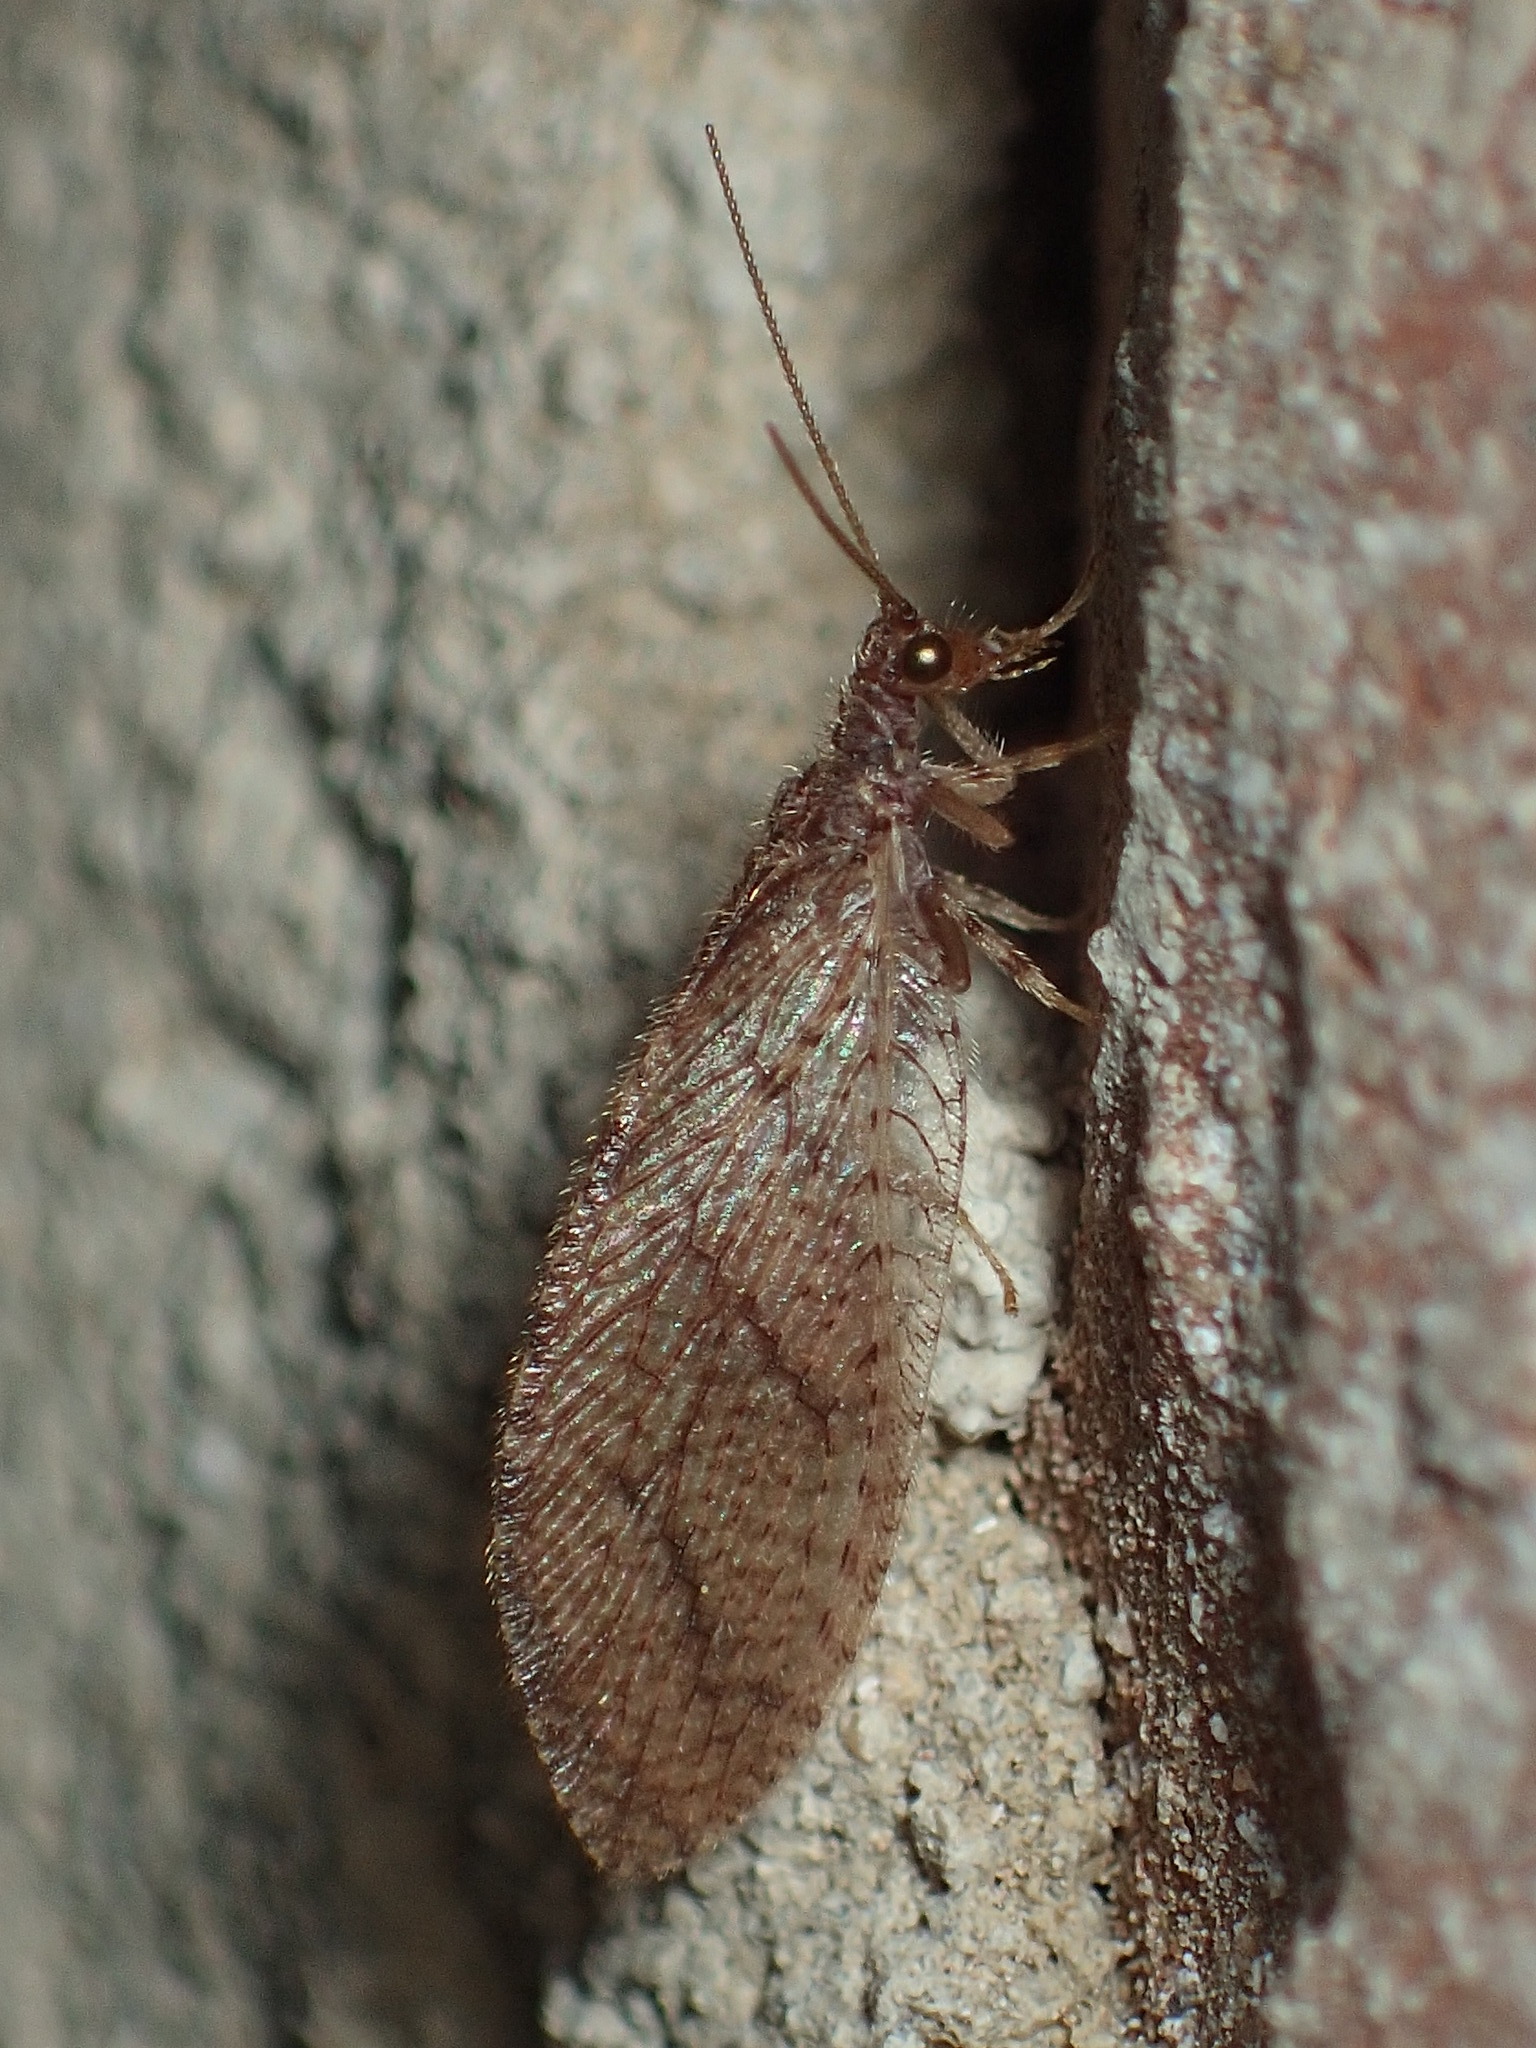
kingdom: Animalia
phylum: Arthropoda
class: Insecta
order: Neuroptera
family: Hemerobiidae
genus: Micromus
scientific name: Micromus posticus
